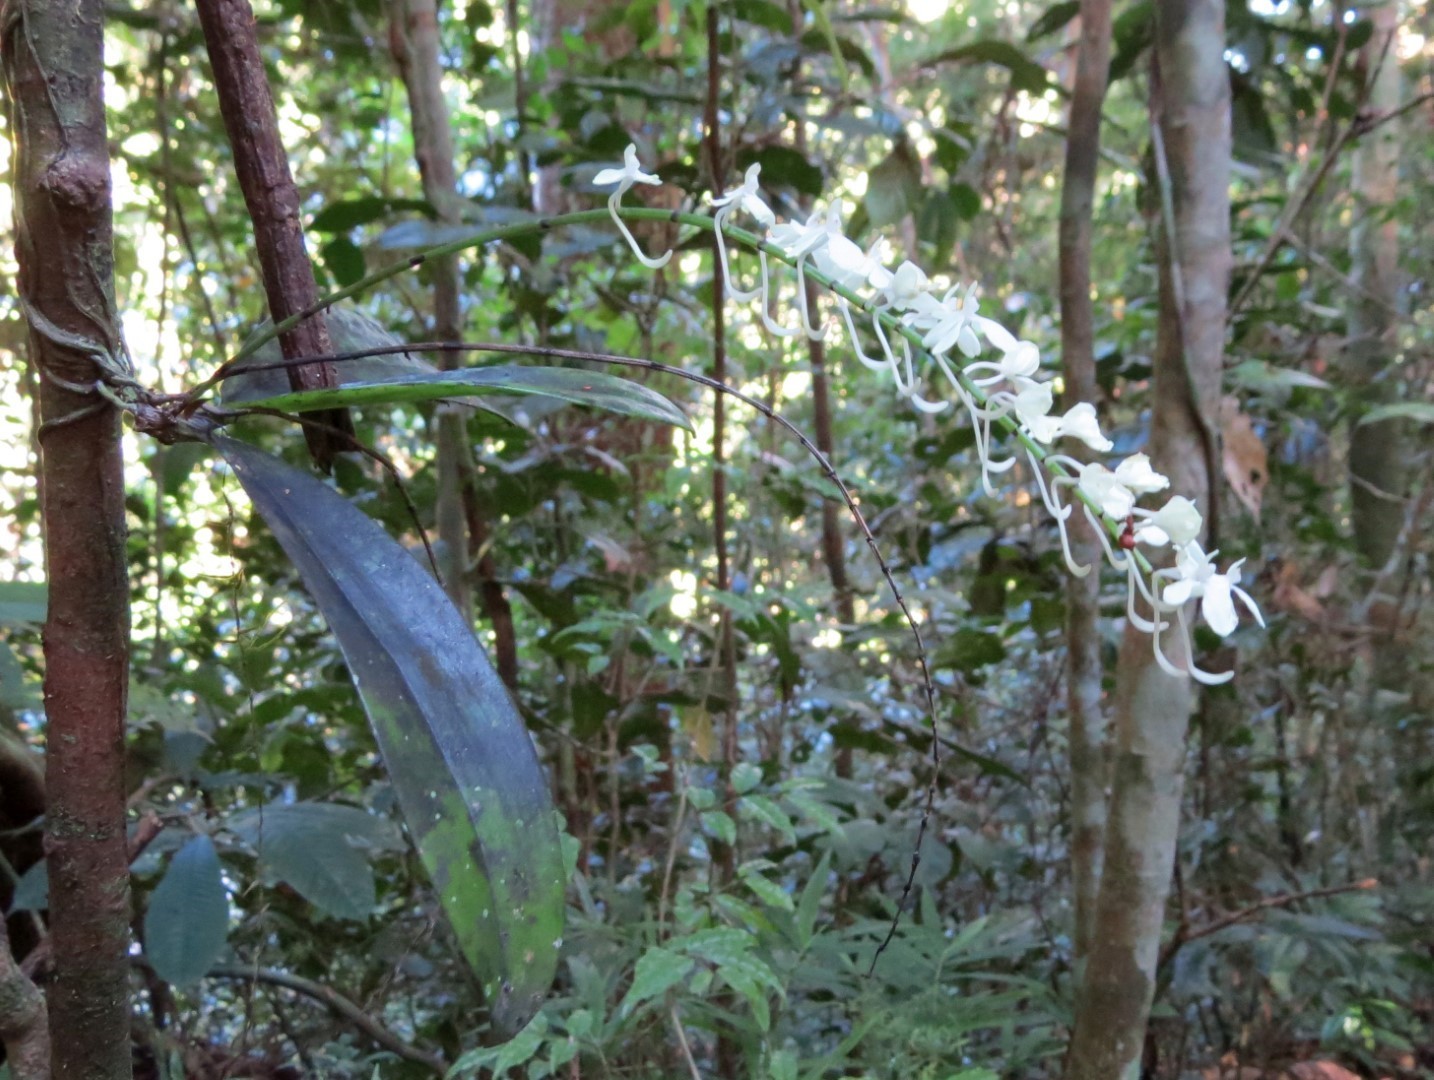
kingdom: Plantae
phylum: Tracheophyta
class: Liliopsida
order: Asparagales
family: Orchidaceae
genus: Aerangis
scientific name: Aerangis citrata
